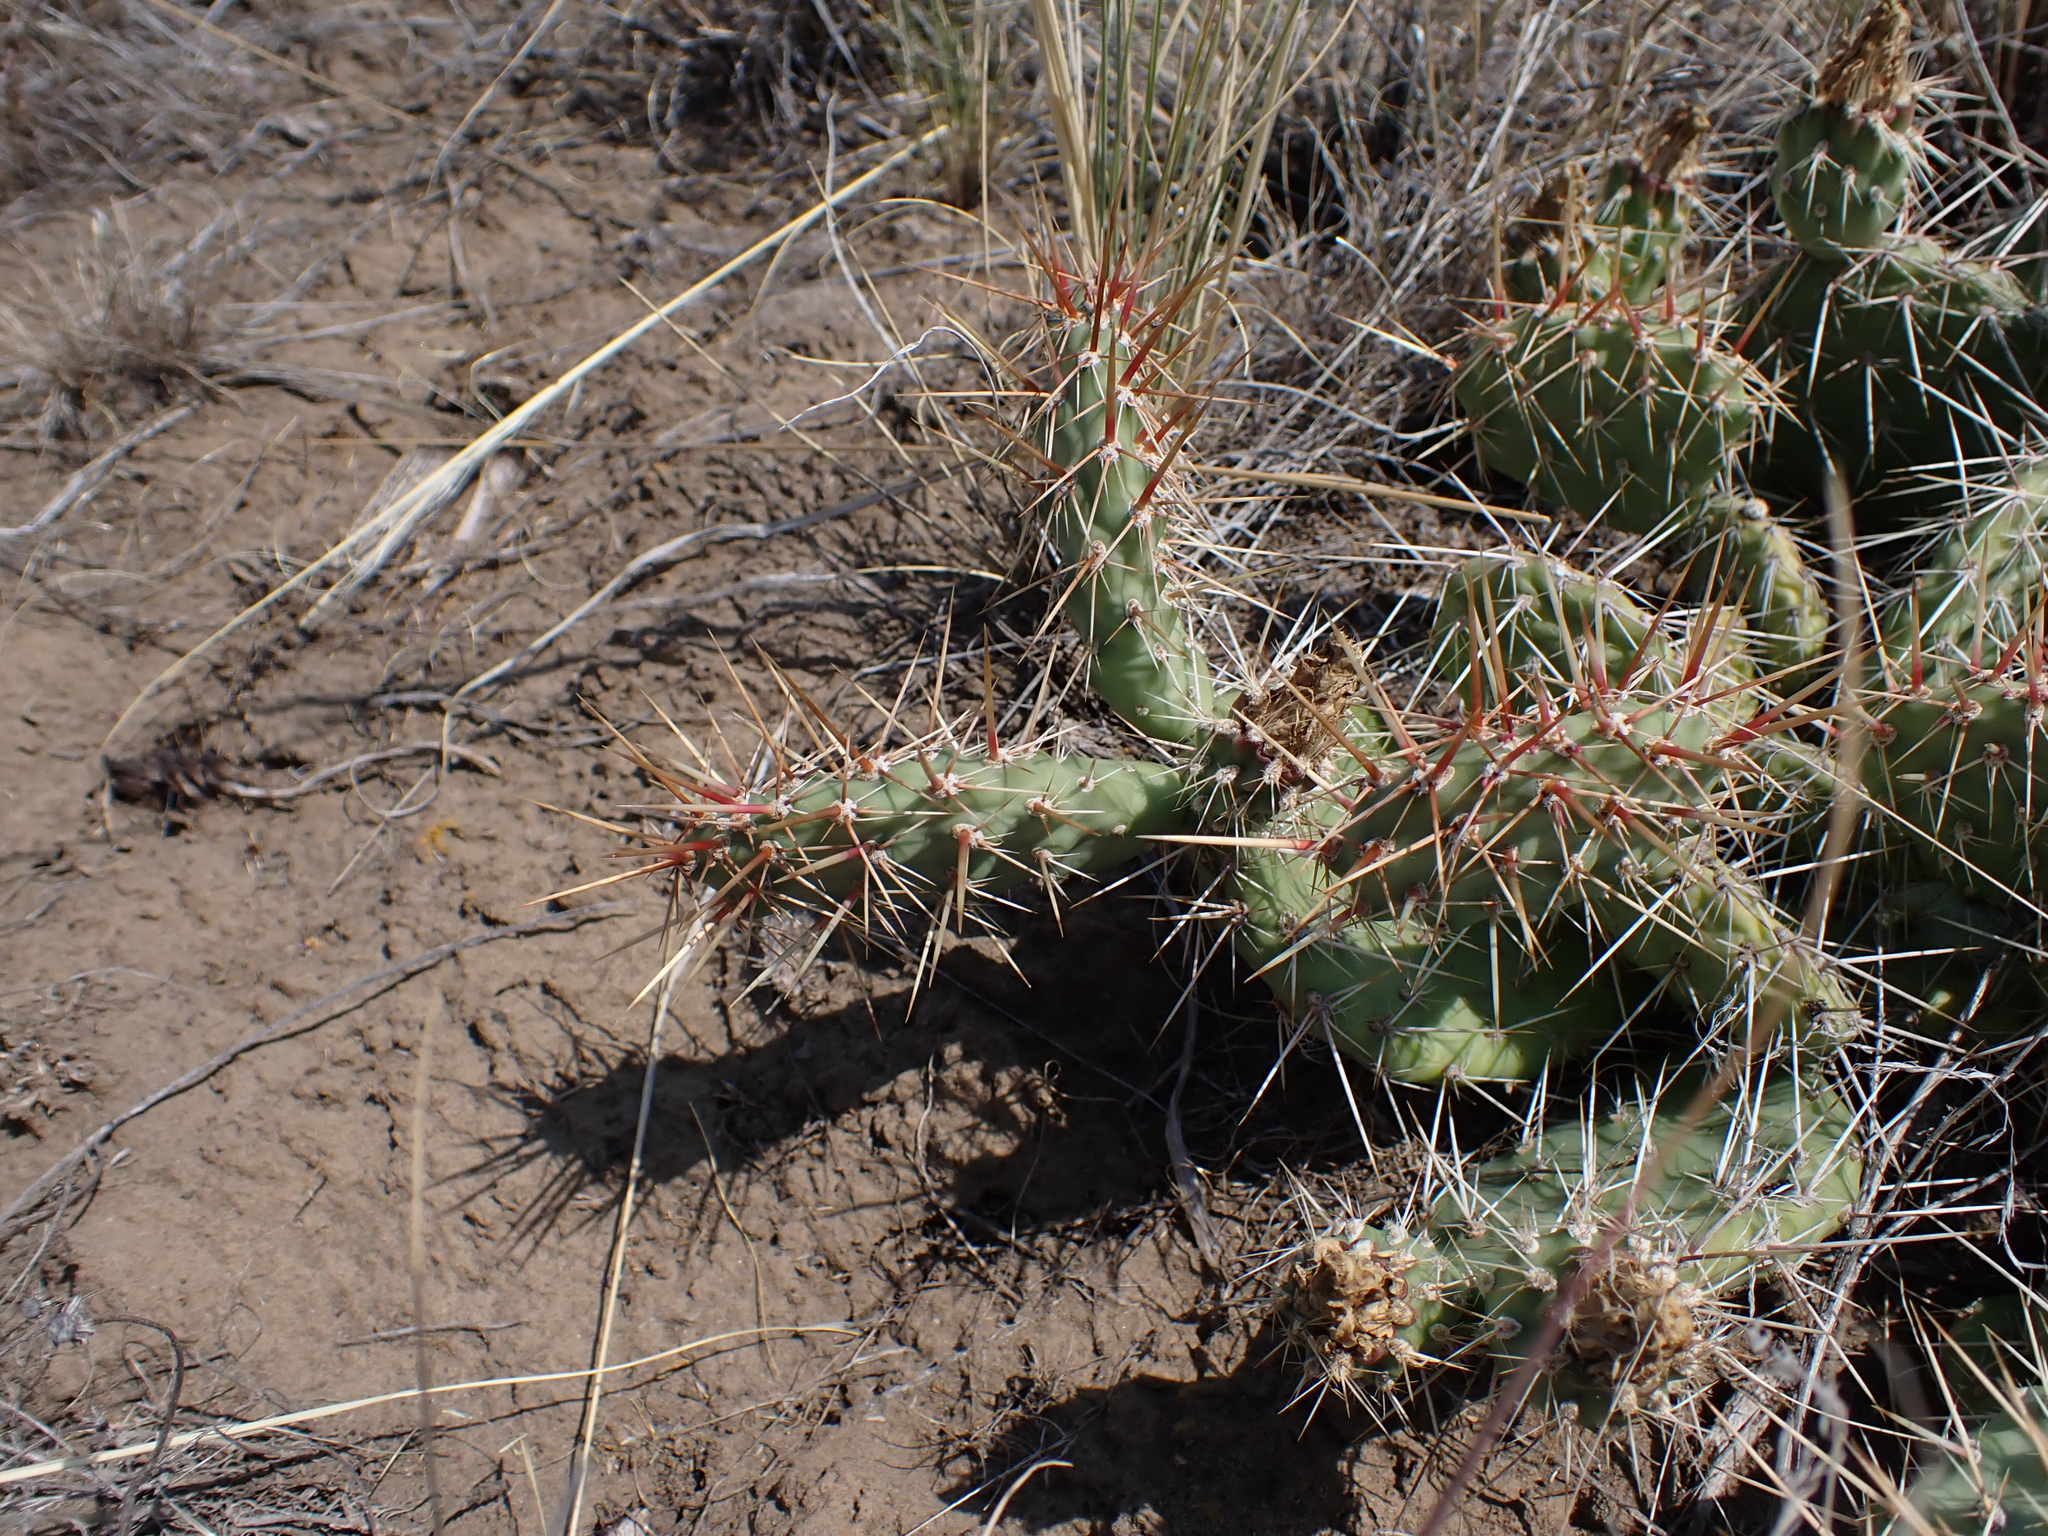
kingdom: Plantae
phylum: Tracheophyta
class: Magnoliopsida
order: Caryophyllales
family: Cactaceae
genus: Opuntia
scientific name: Opuntia columbiana
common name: Columbia prickly-pear
